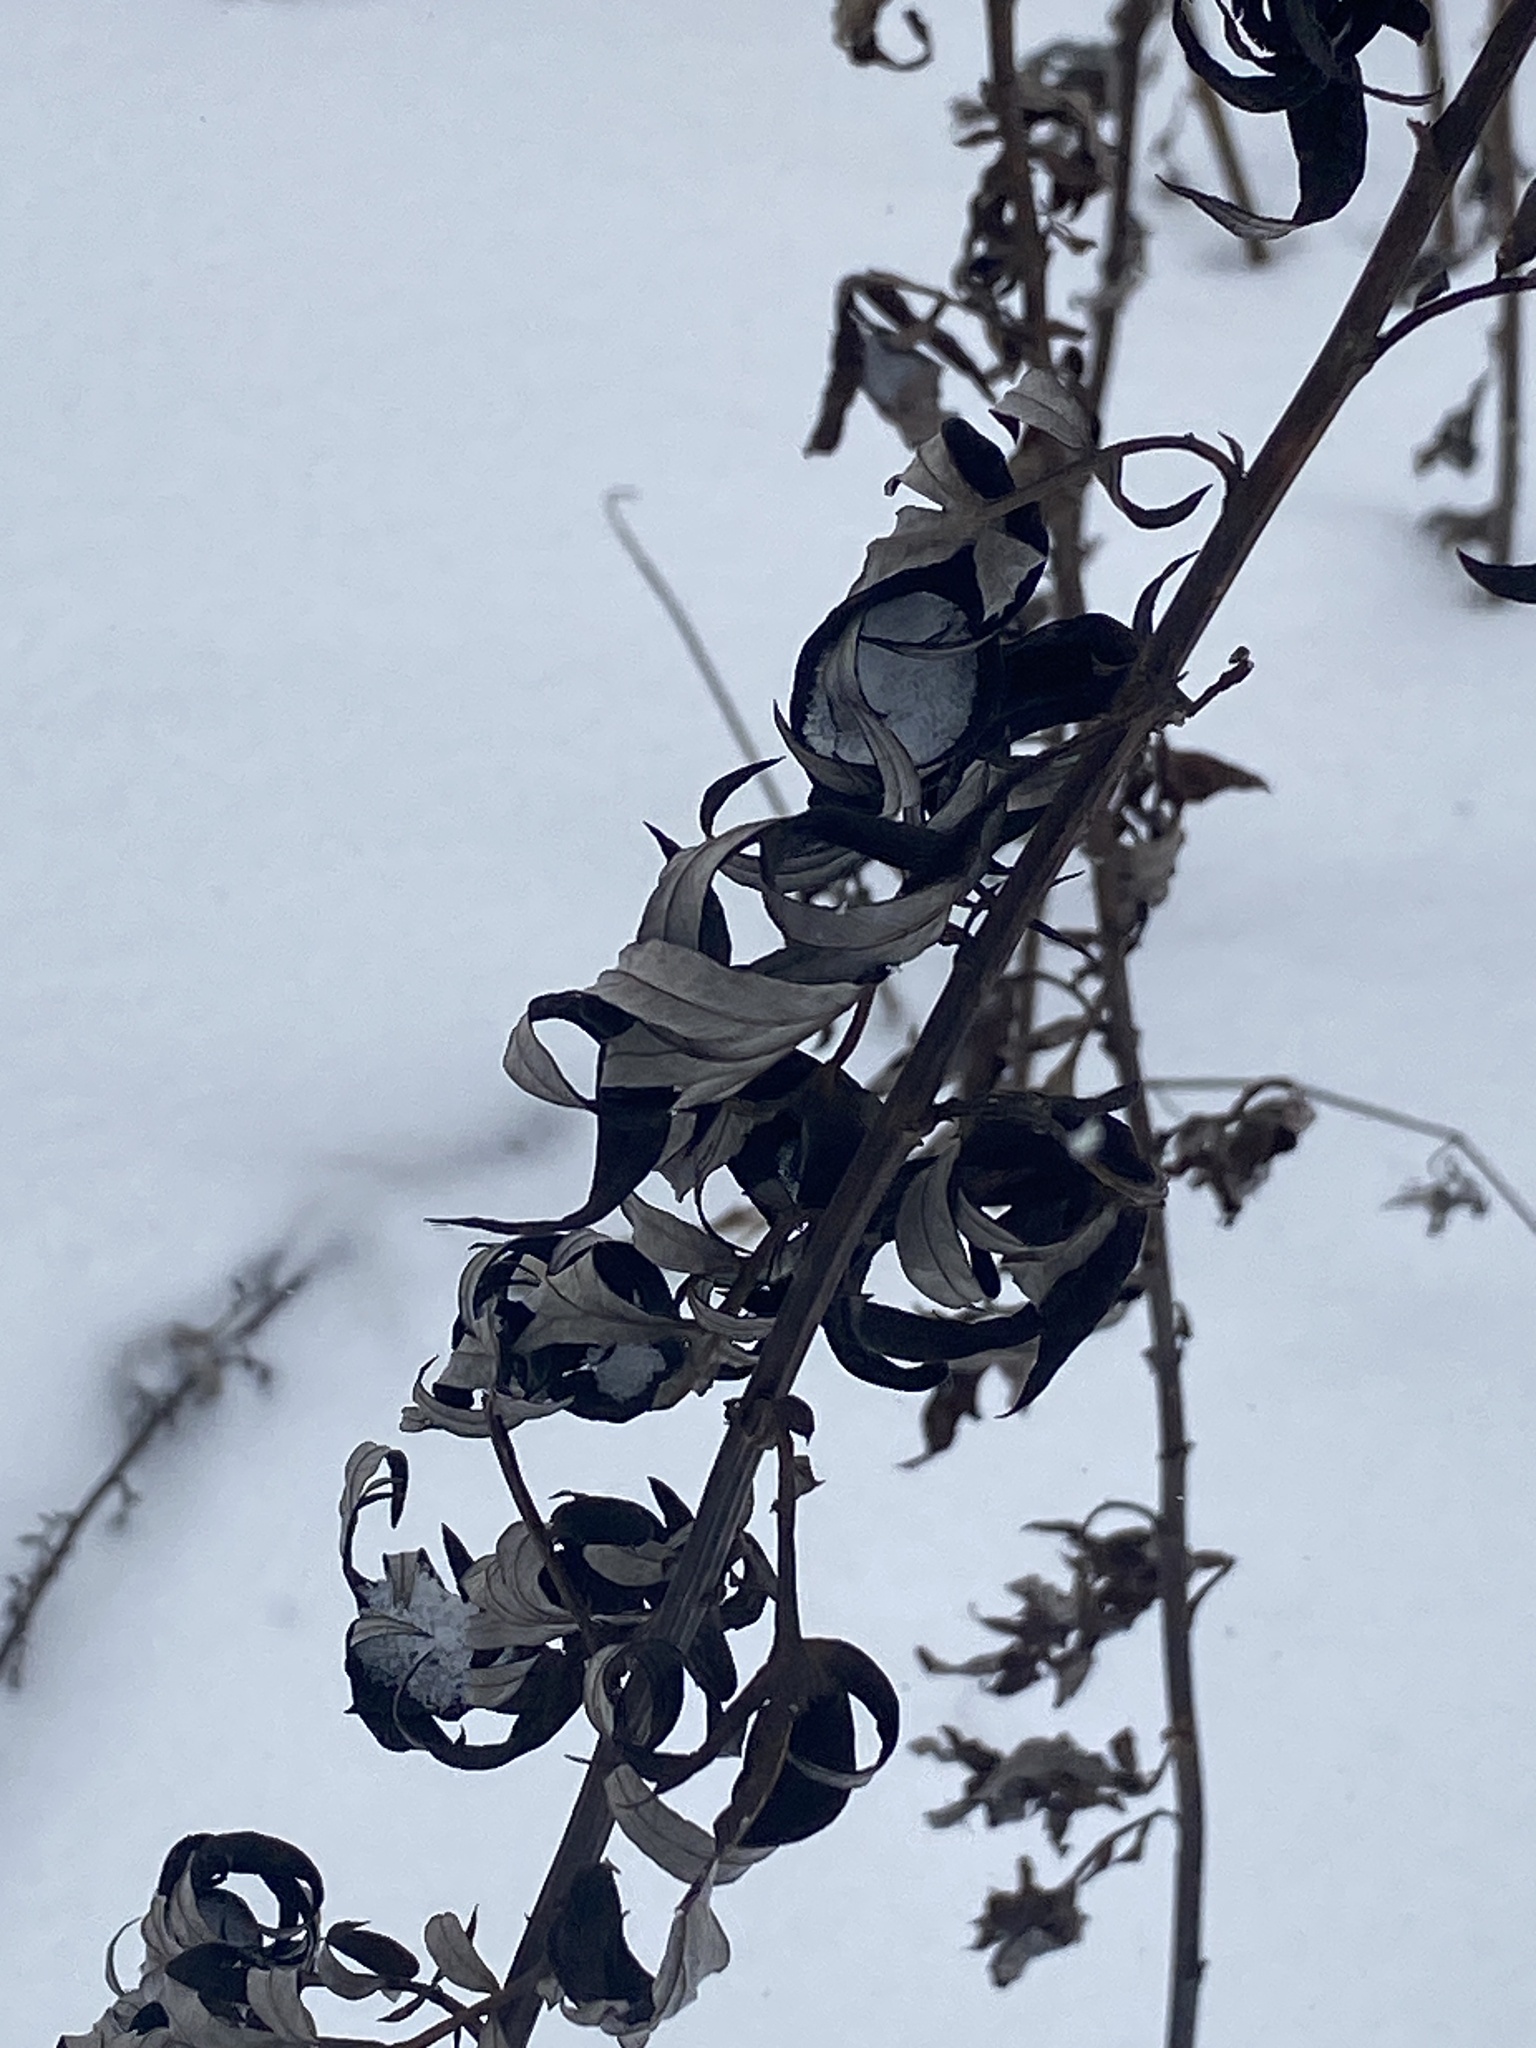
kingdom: Plantae
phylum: Tracheophyta
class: Magnoliopsida
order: Asterales
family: Asteraceae
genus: Artemisia
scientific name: Artemisia vulgaris
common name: Mugwort
